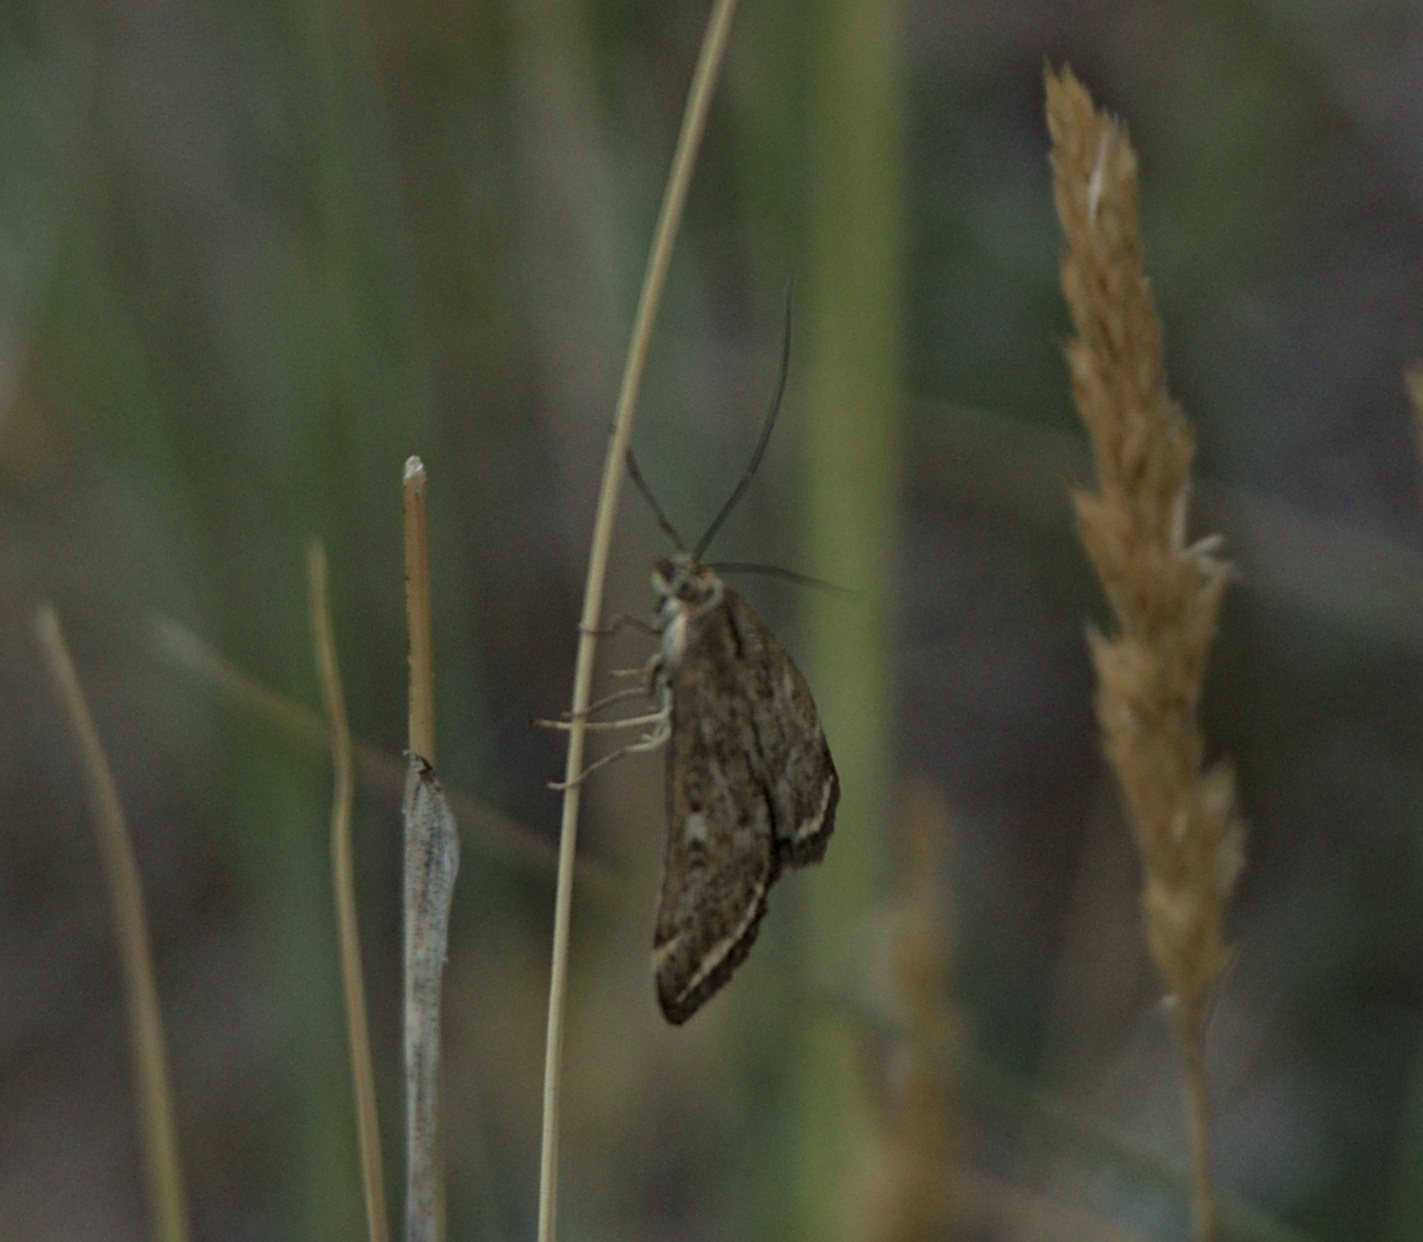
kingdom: Animalia
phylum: Arthropoda
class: Insecta
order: Lepidoptera
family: Crambidae
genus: Loxostege
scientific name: Loxostege sticticalis
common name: Crambid moth
